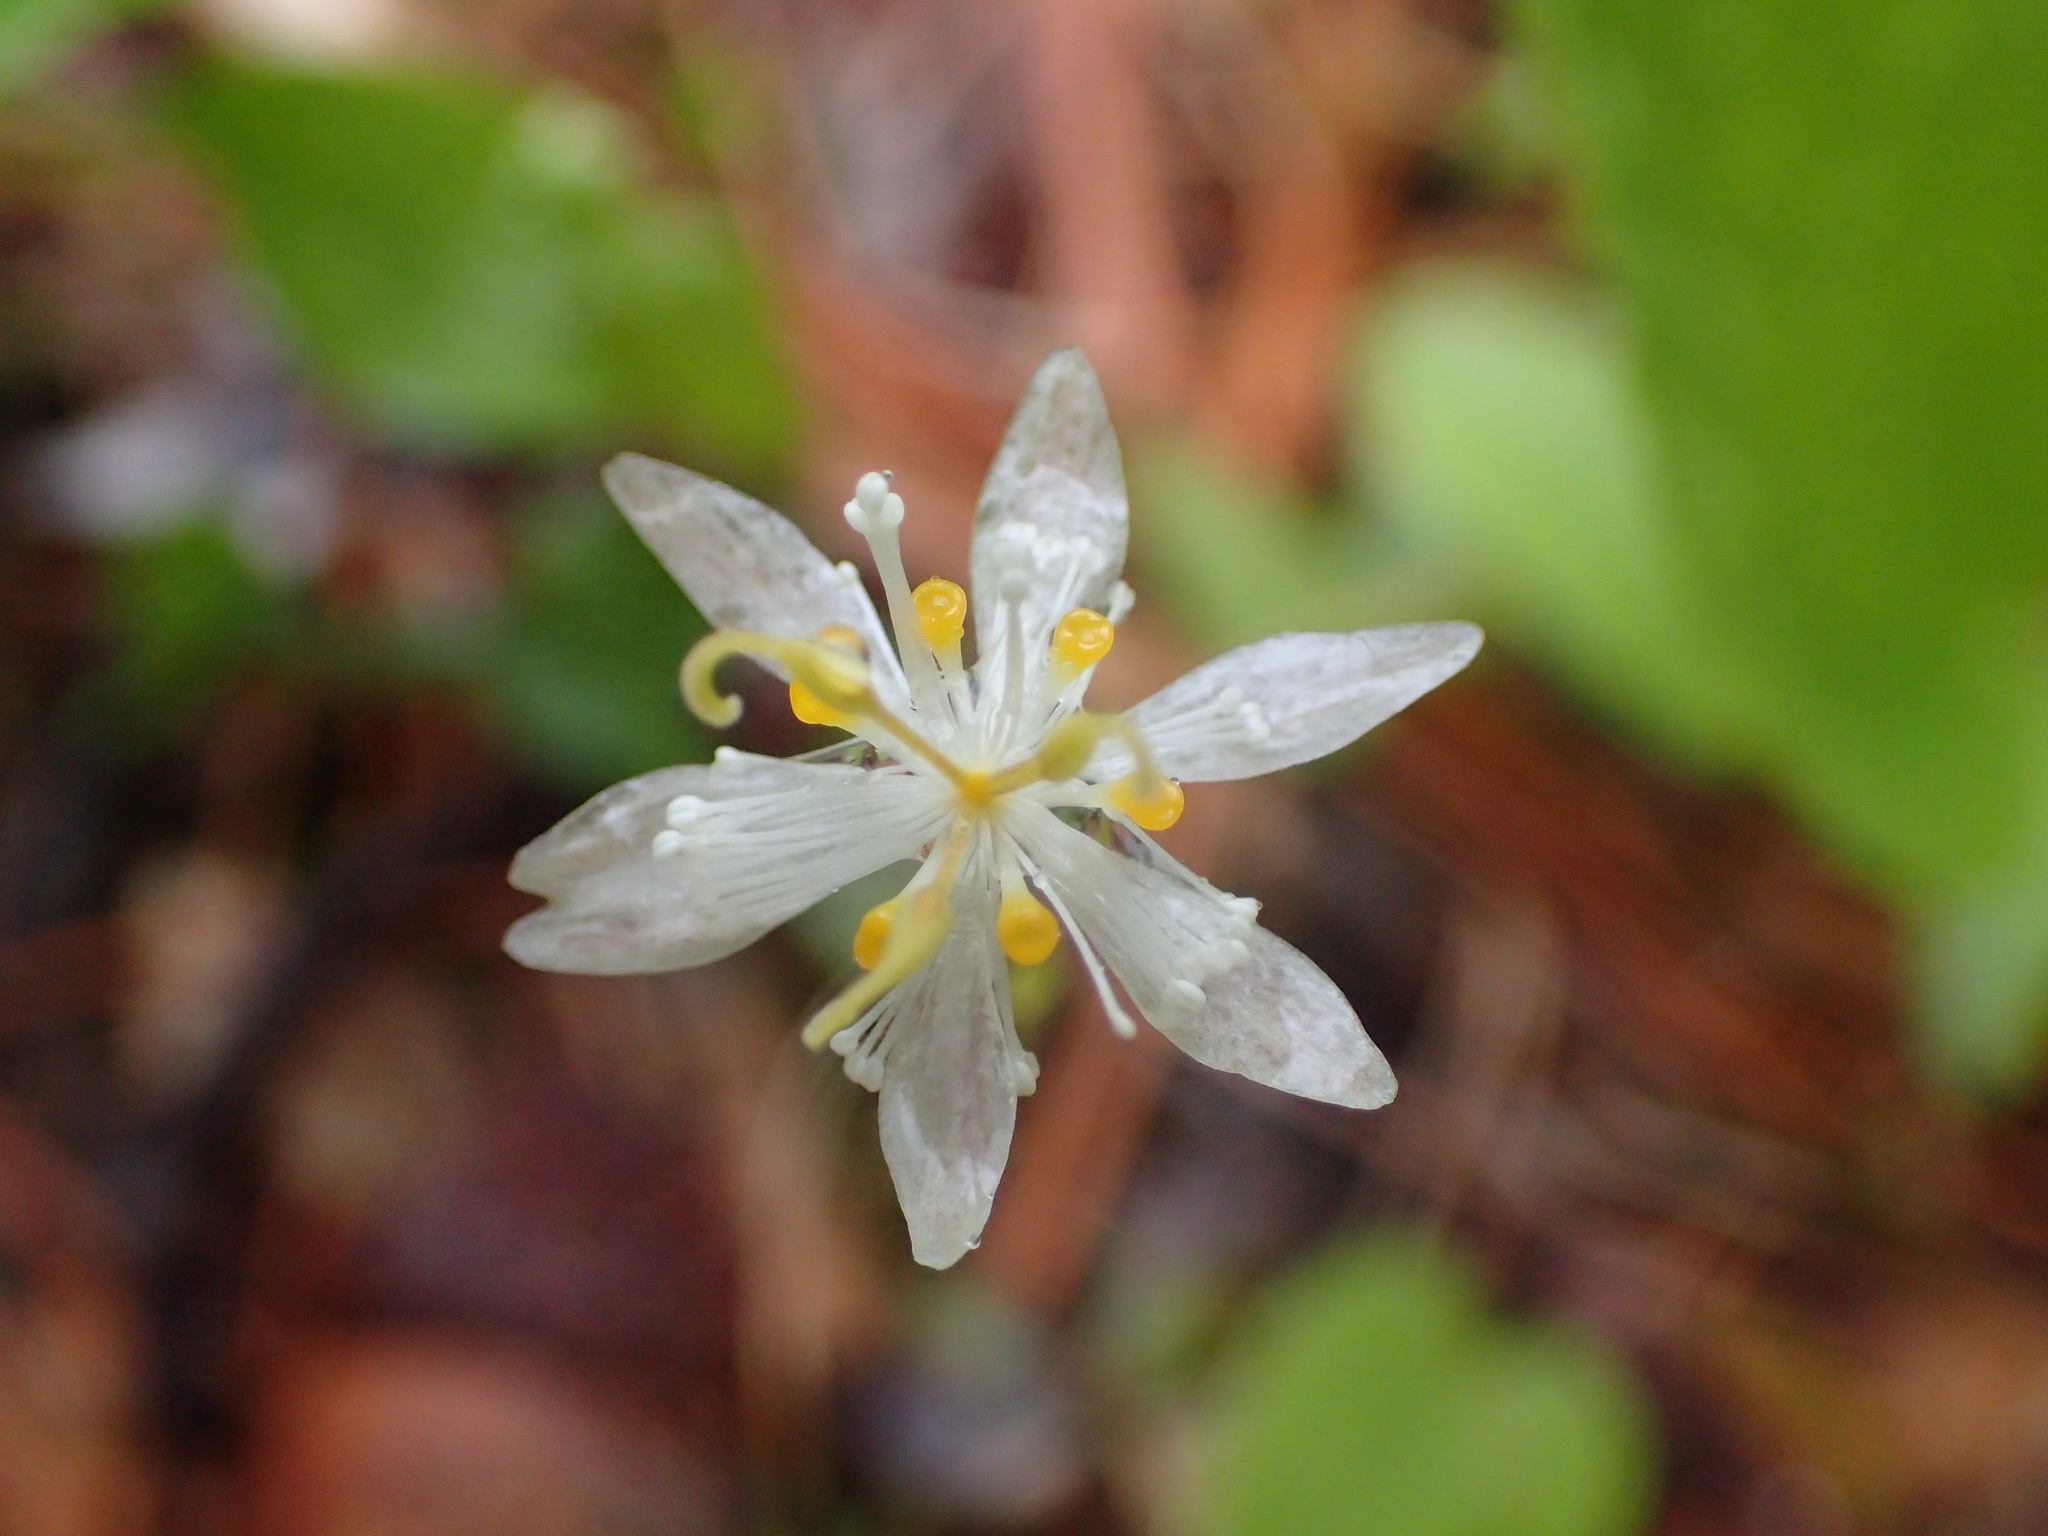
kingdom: Plantae
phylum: Tracheophyta
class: Magnoliopsida
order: Ranunculales
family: Ranunculaceae
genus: Coptis
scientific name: Coptis trifolia
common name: Canker-root
